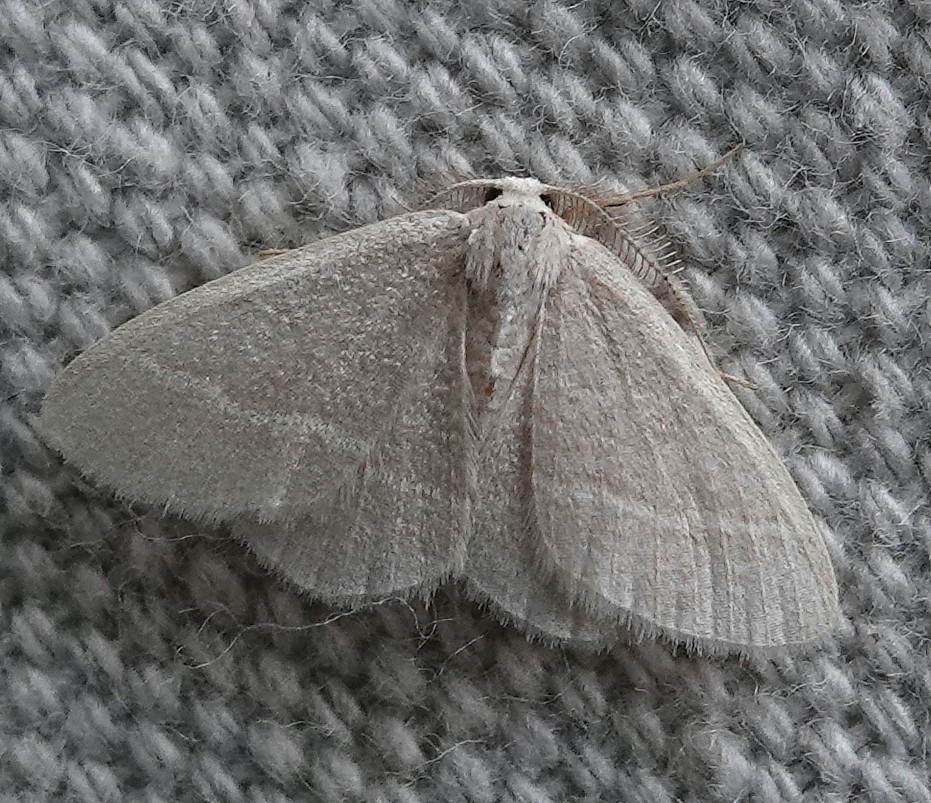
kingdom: Animalia
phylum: Arthropoda
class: Insecta
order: Lepidoptera
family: Geometridae
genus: Chlorochlamys
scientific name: Chlorochlamys chloroleucaria
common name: Blackberry looper
